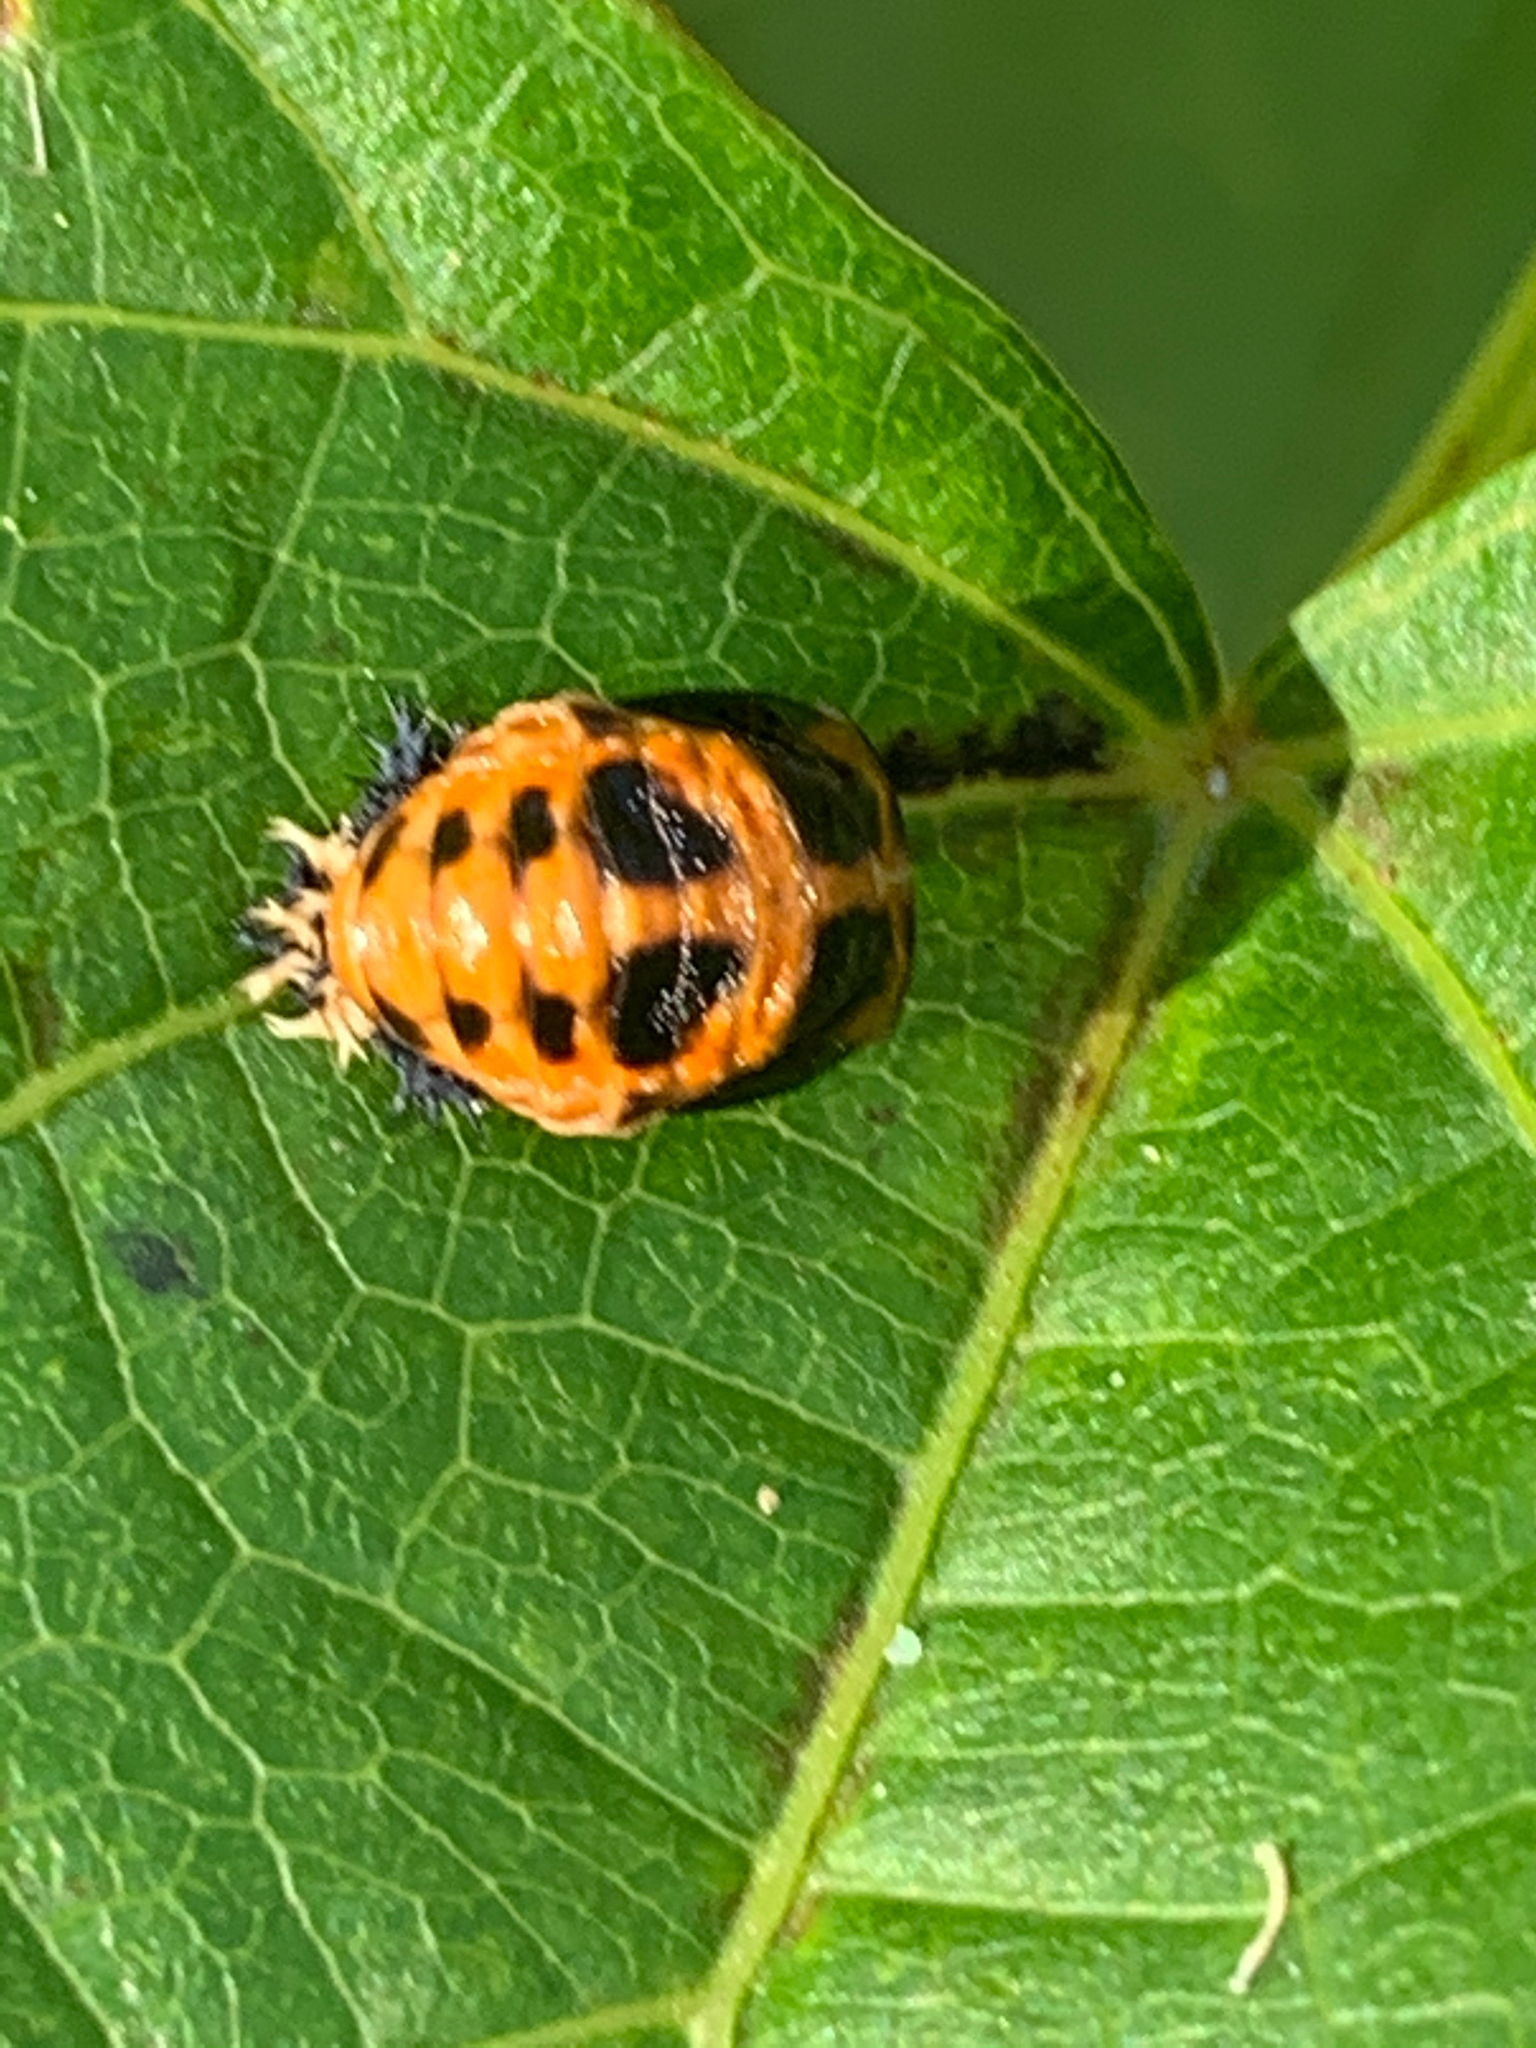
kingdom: Animalia
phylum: Arthropoda
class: Insecta
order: Coleoptera
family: Coccinellidae
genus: Harmonia
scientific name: Harmonia axyridis
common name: Harlequin ladybird
